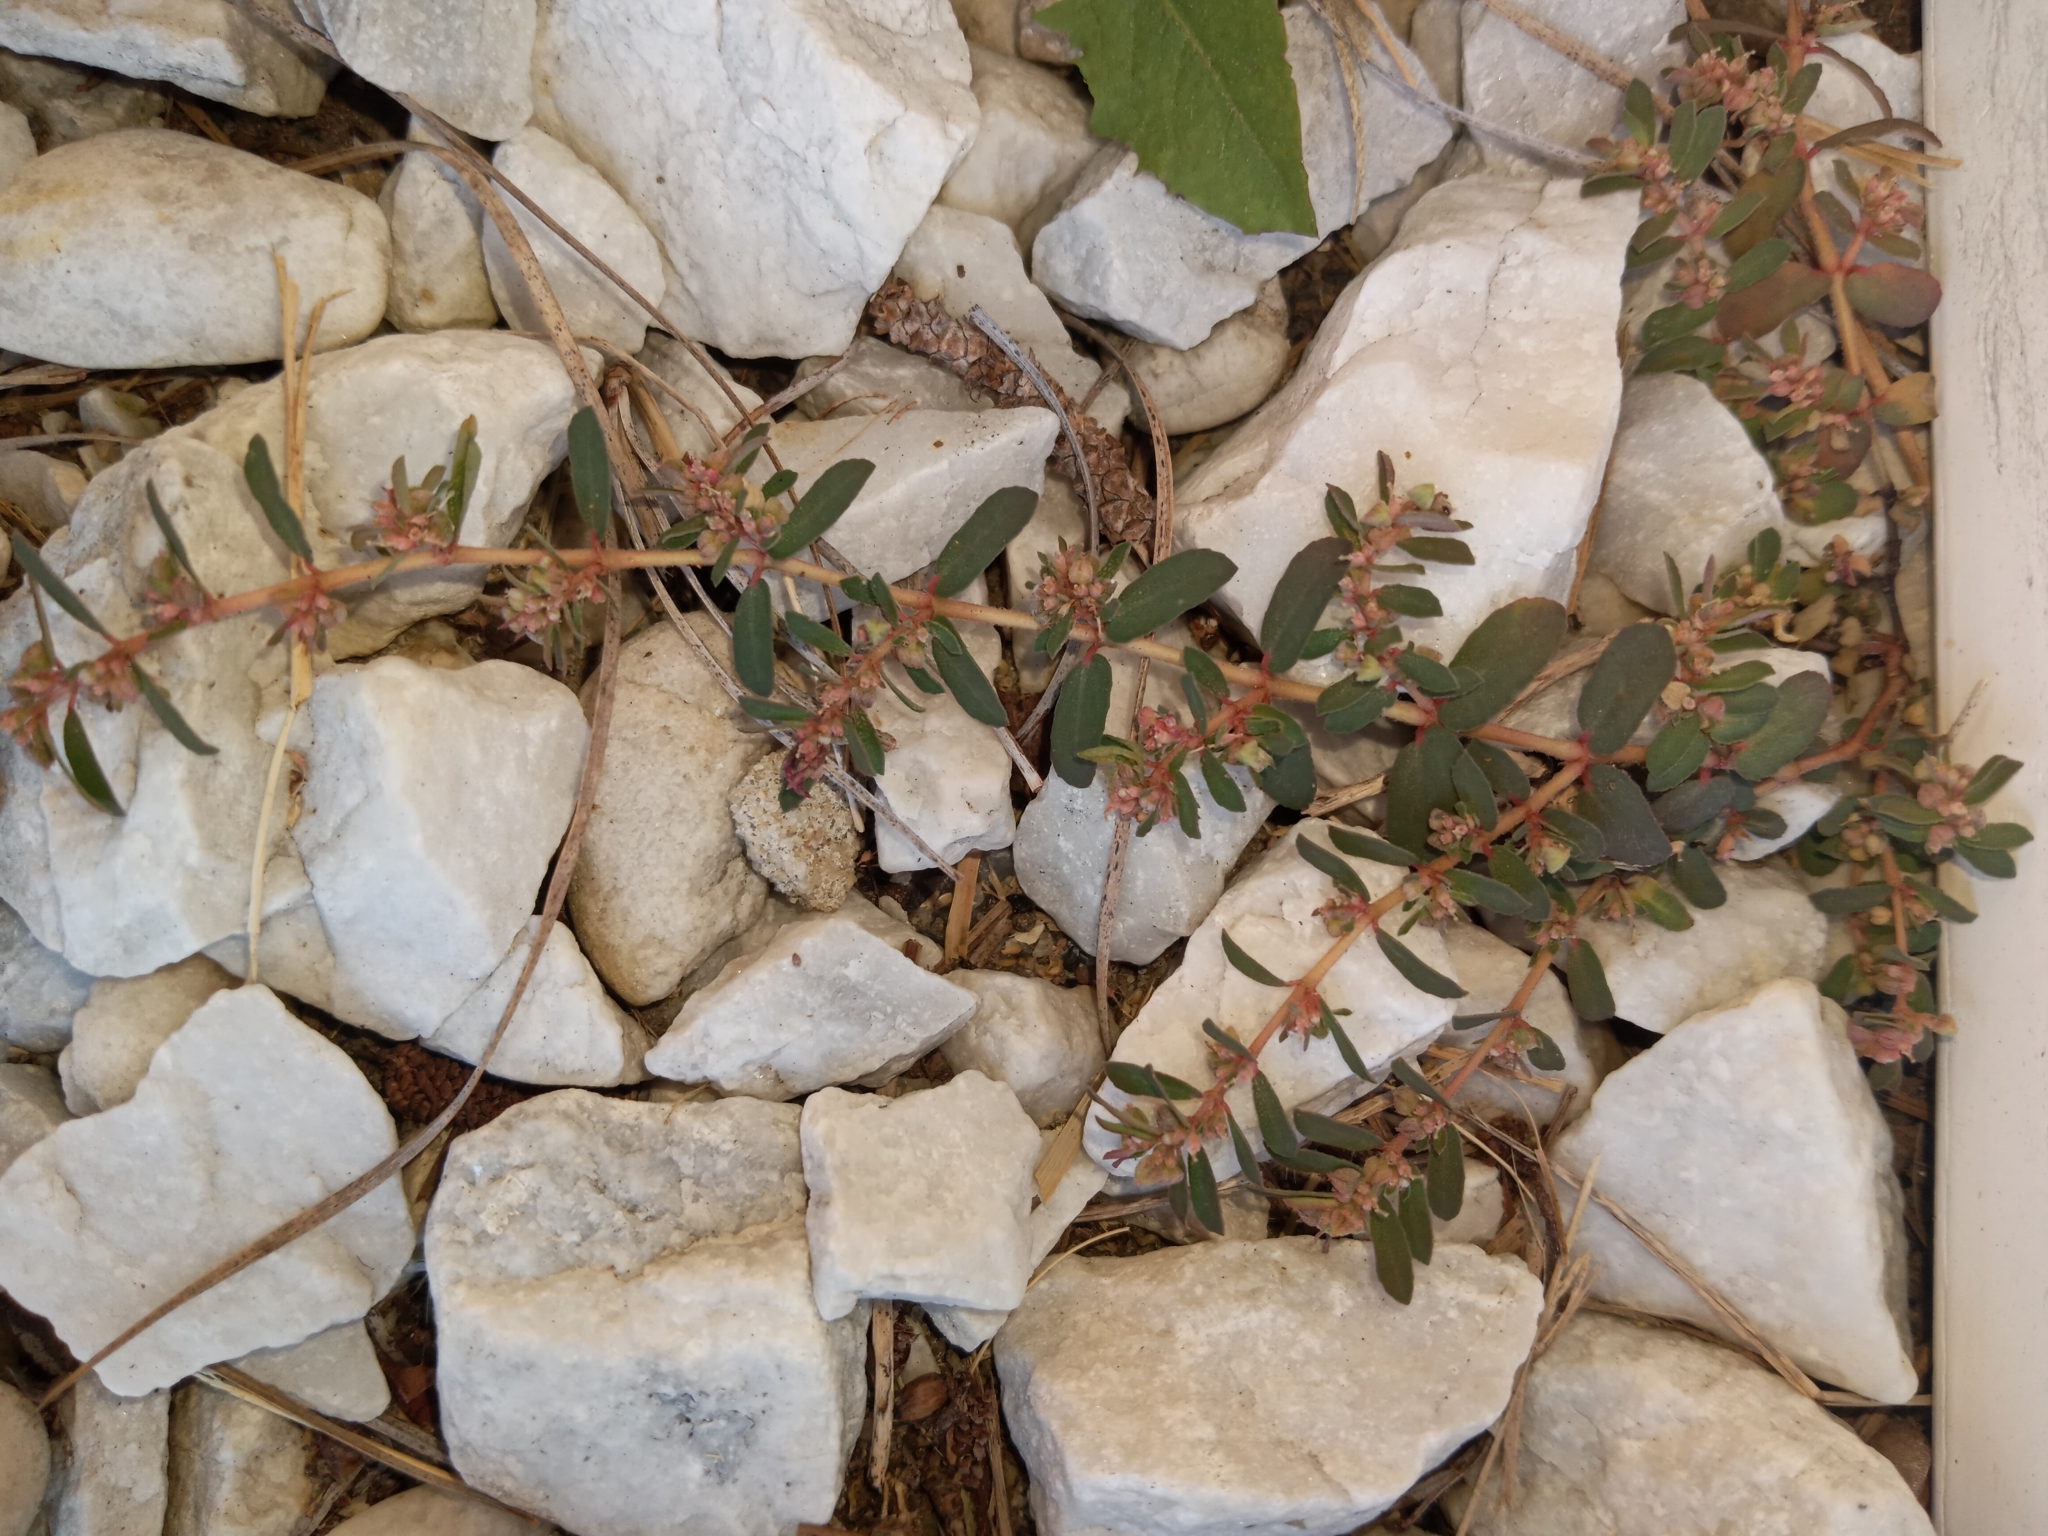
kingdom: Plantae
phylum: Tracheophyta
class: Magnoliopsida
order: Malpighiales
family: Euphorbiaceae
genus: Euphorbia
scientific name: Euphorbia maculata
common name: Spotted spurge
